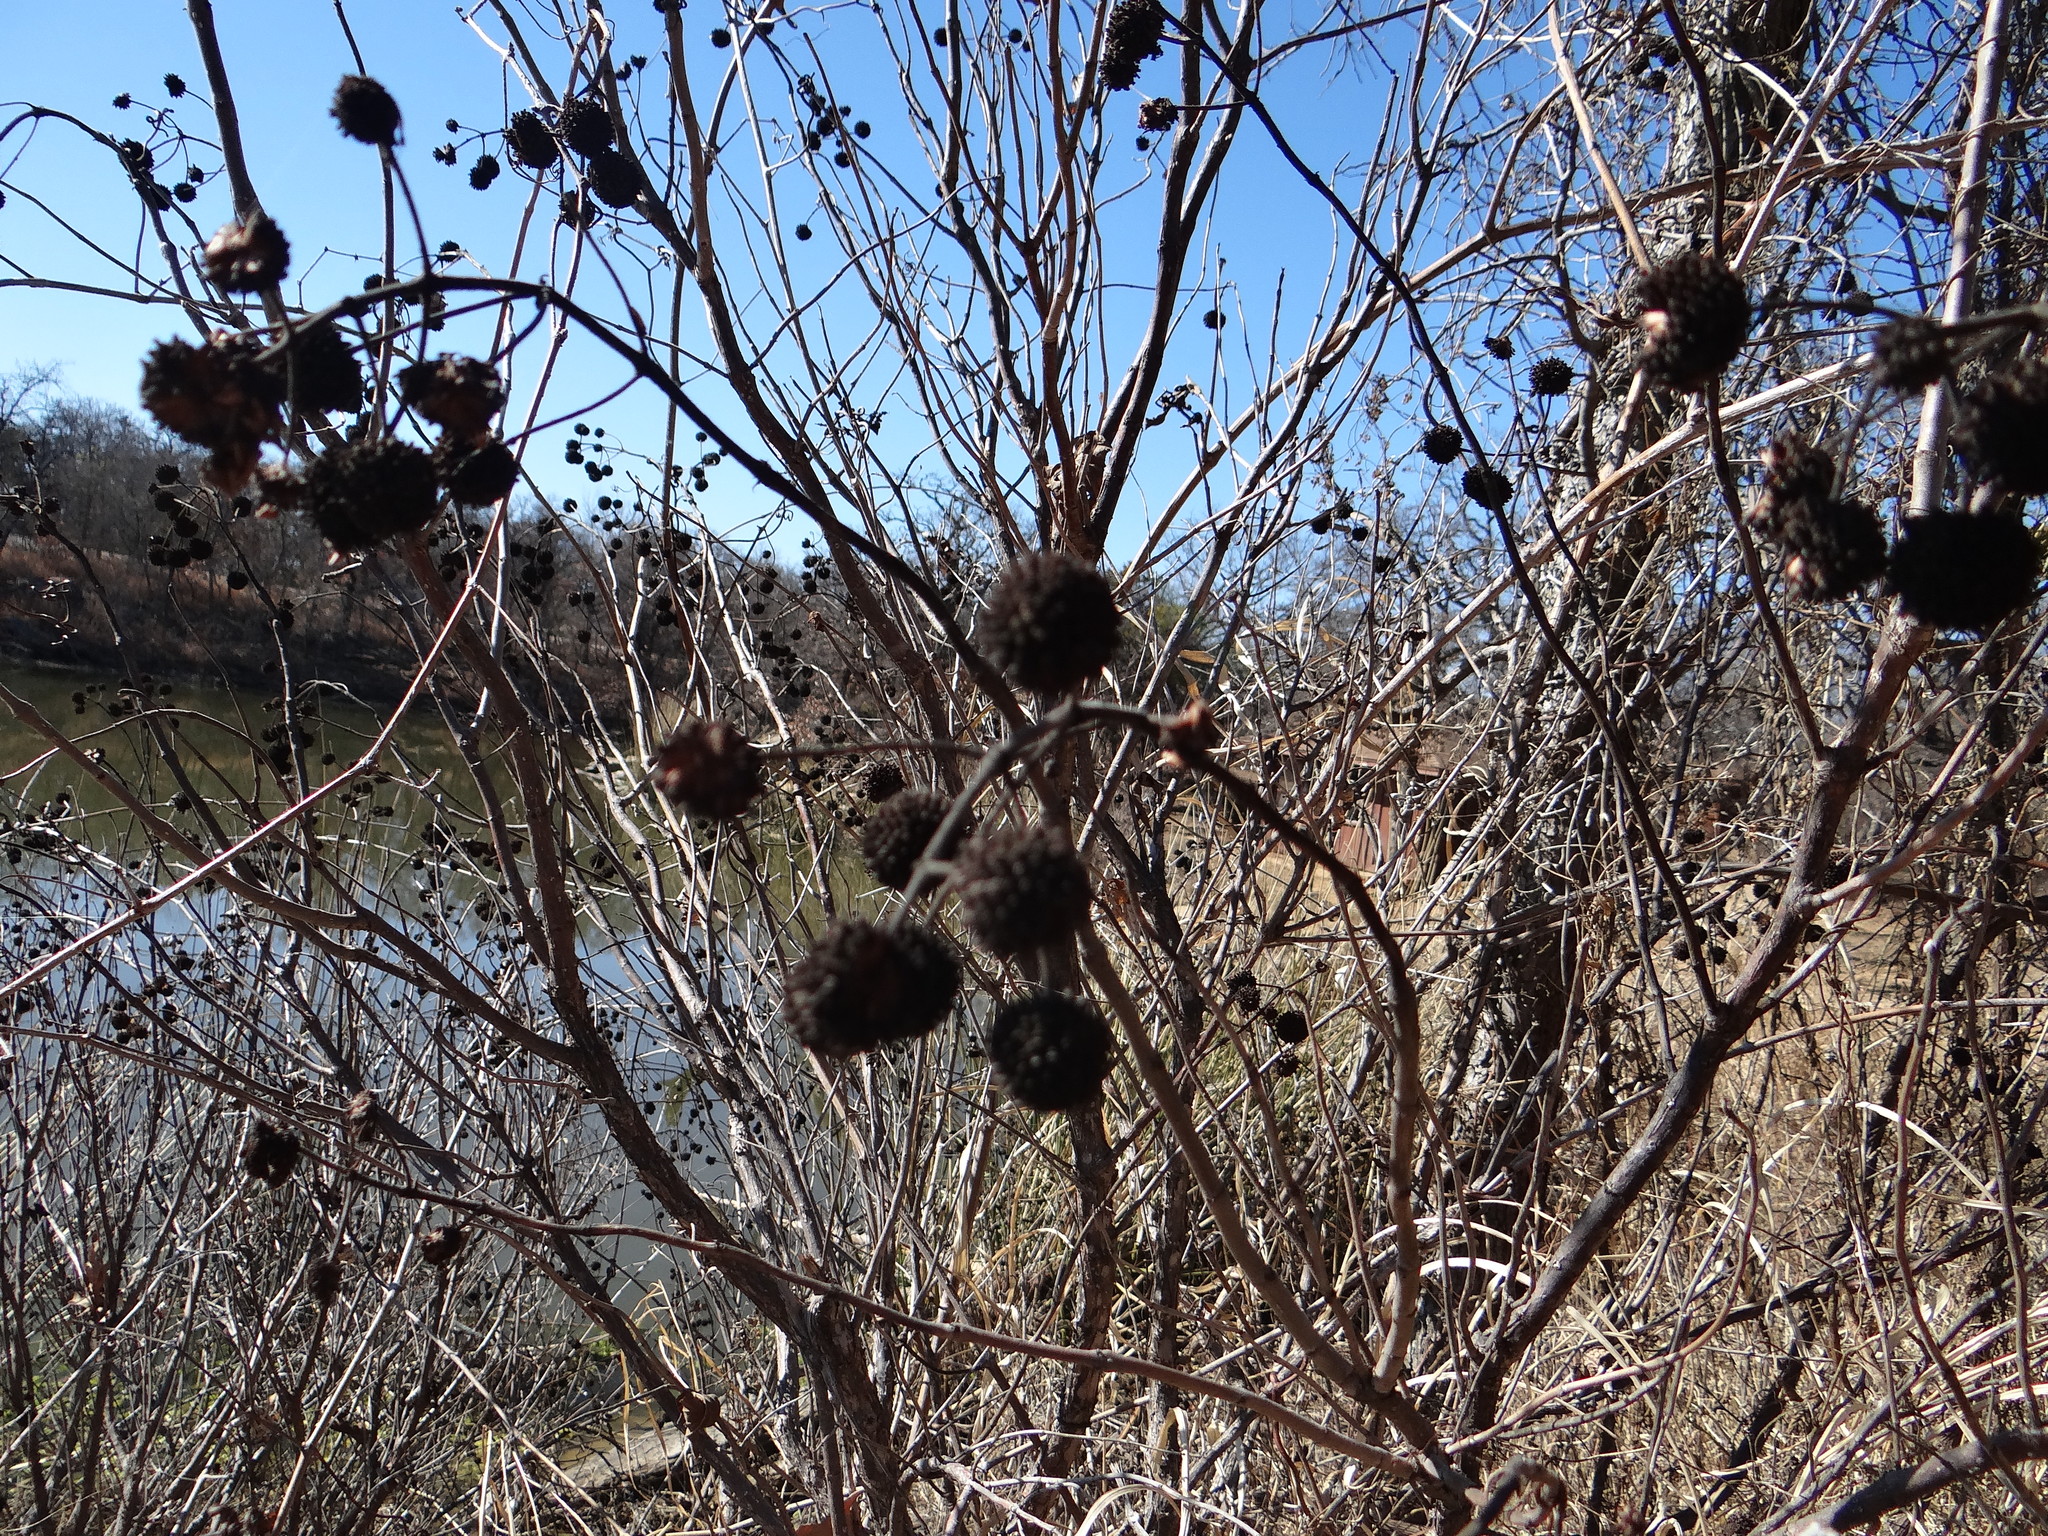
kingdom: Plantae
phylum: Tracheophyta
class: Magnoliopsida
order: Gentianales
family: Rubiaceae
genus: Cephalanthus
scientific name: Cephalanthus occidentalis
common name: Button-willow
